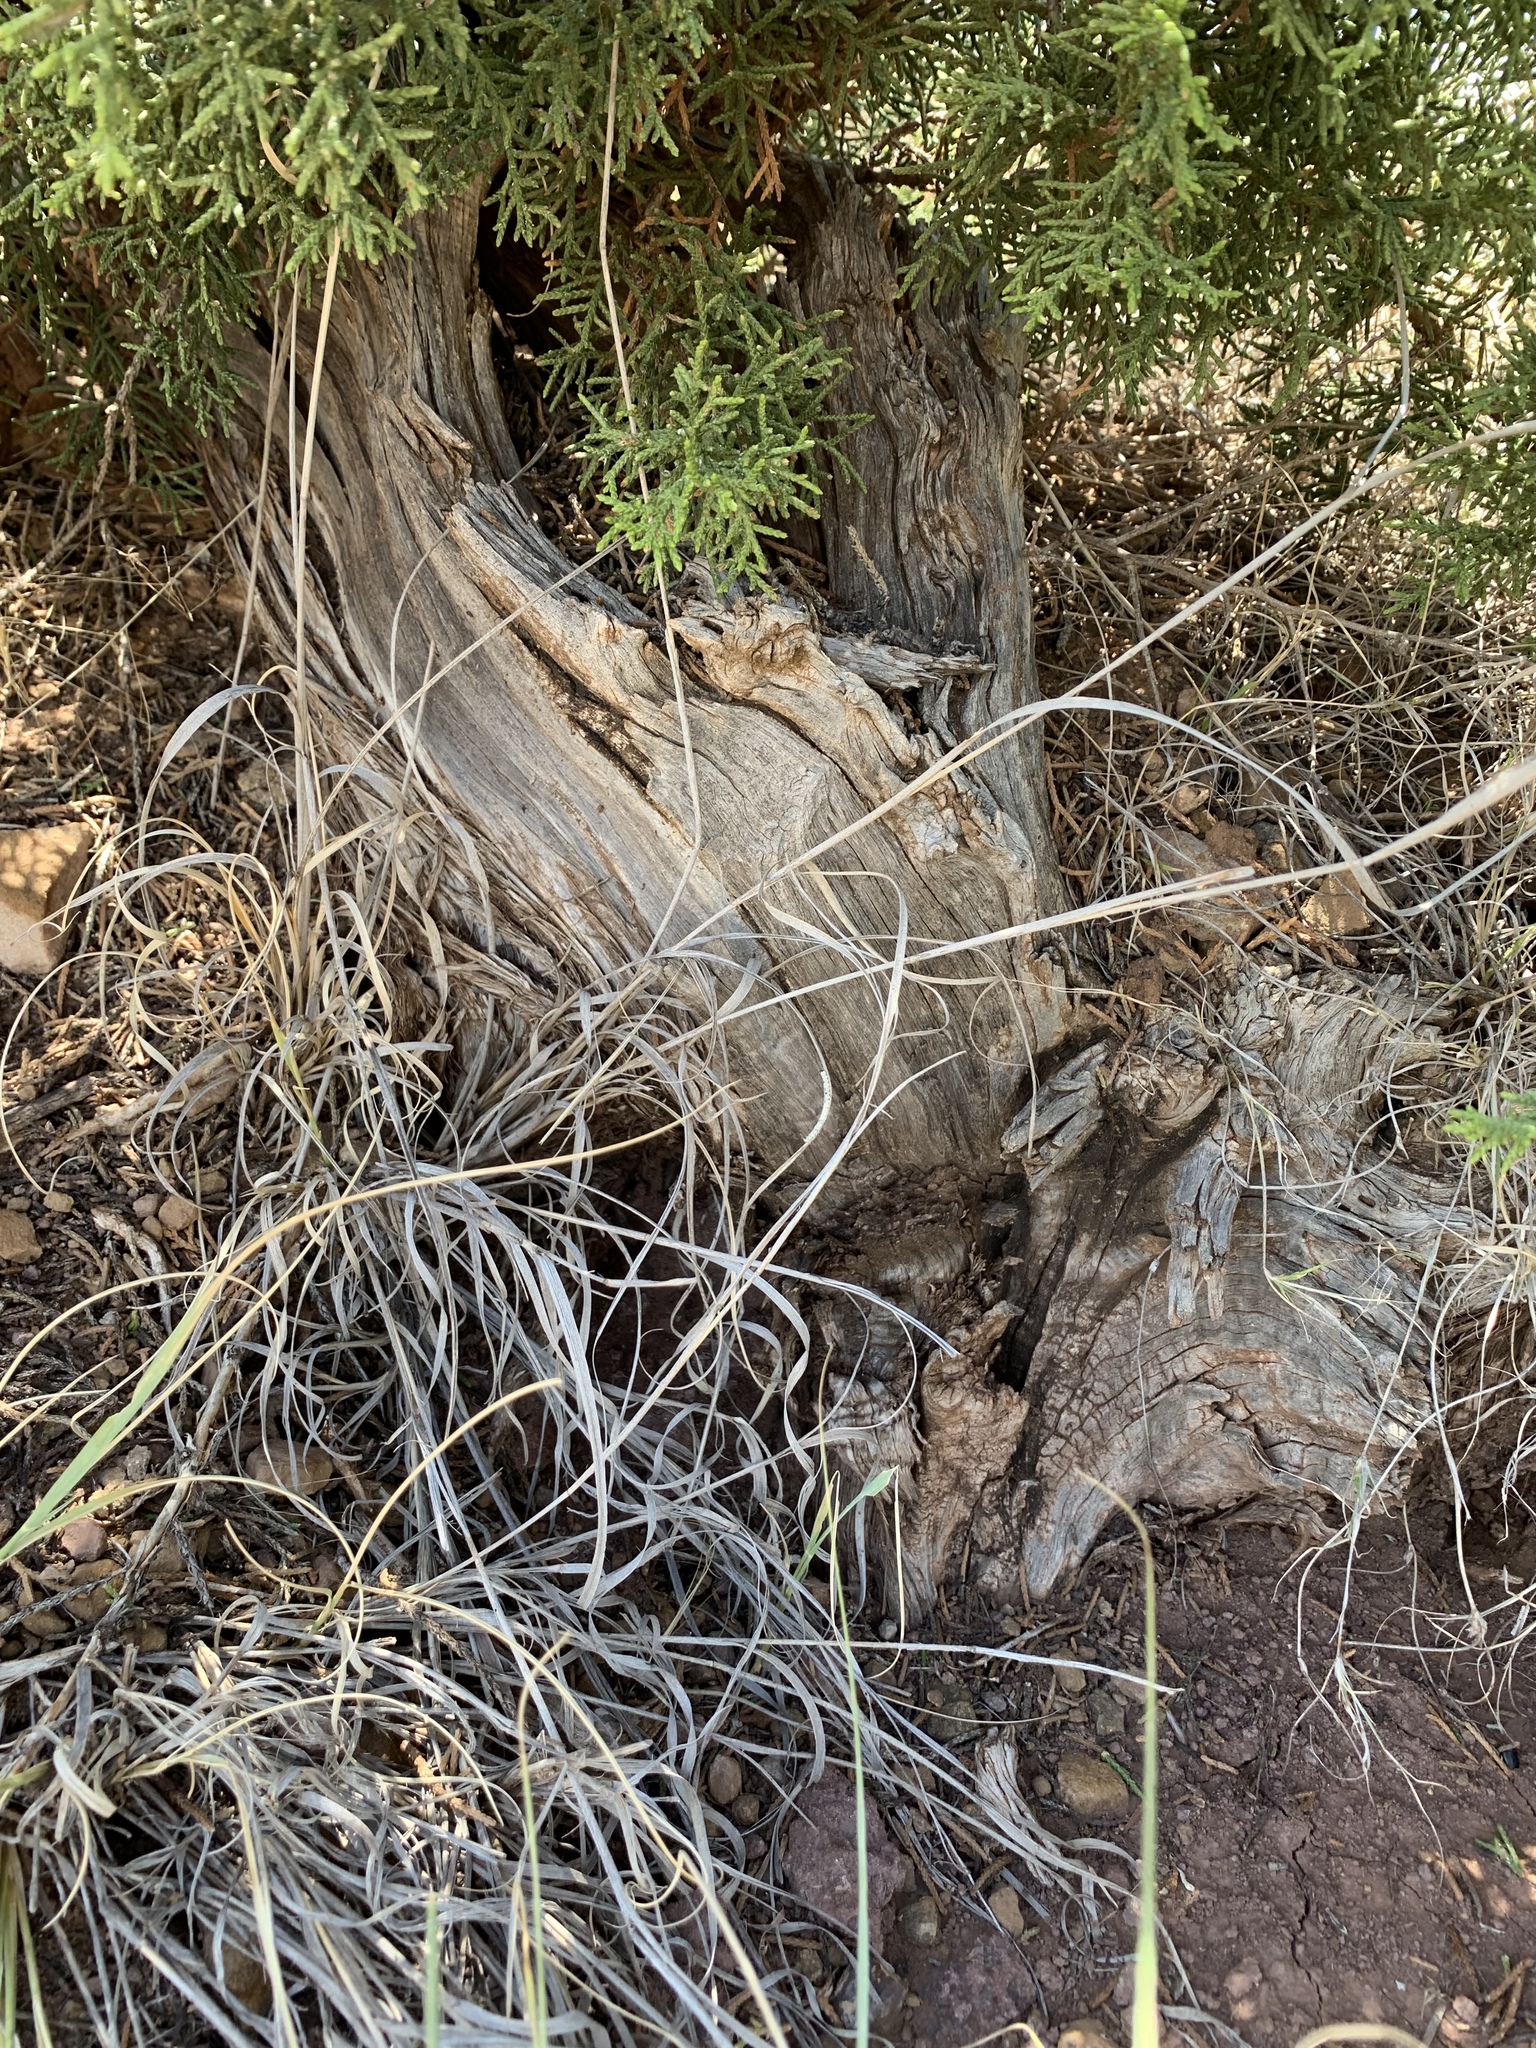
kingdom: Plantae
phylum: Tracheophyta
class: Pinopsida
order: Pinales
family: Cupressaceae
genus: Juniperus
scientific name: Juniperus monosperma
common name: One-seed juniper
